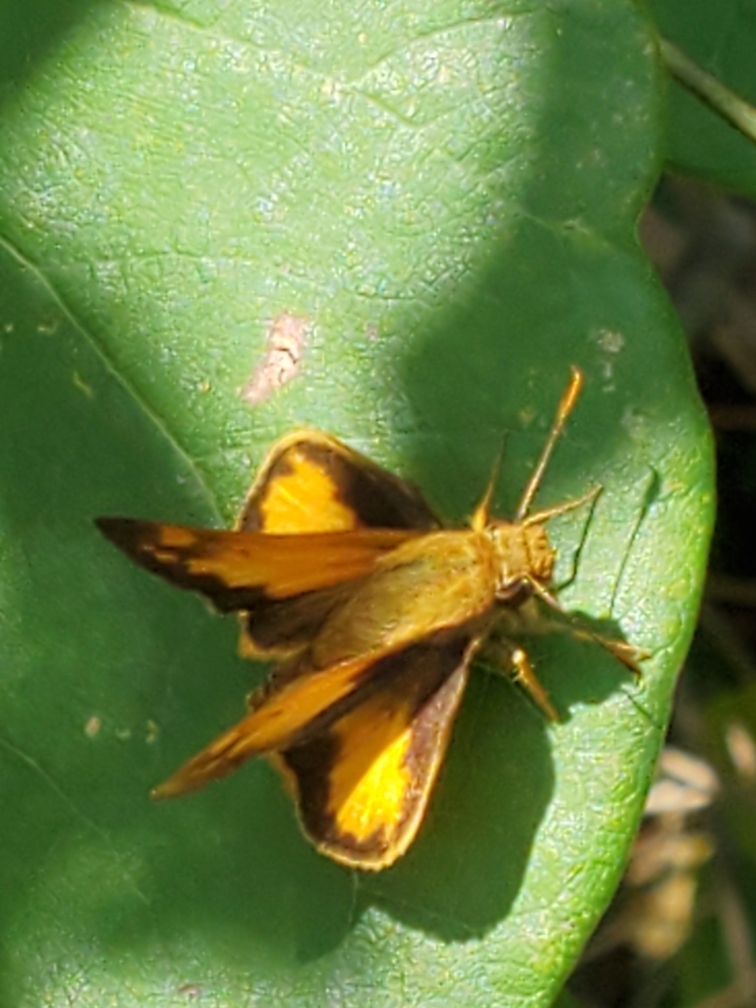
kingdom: Animalia
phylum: Arthropoda
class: Insecta
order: Lepidoptera
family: Hesperiidae
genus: Lon
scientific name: Lon zabulon
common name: Zabulon skipper
